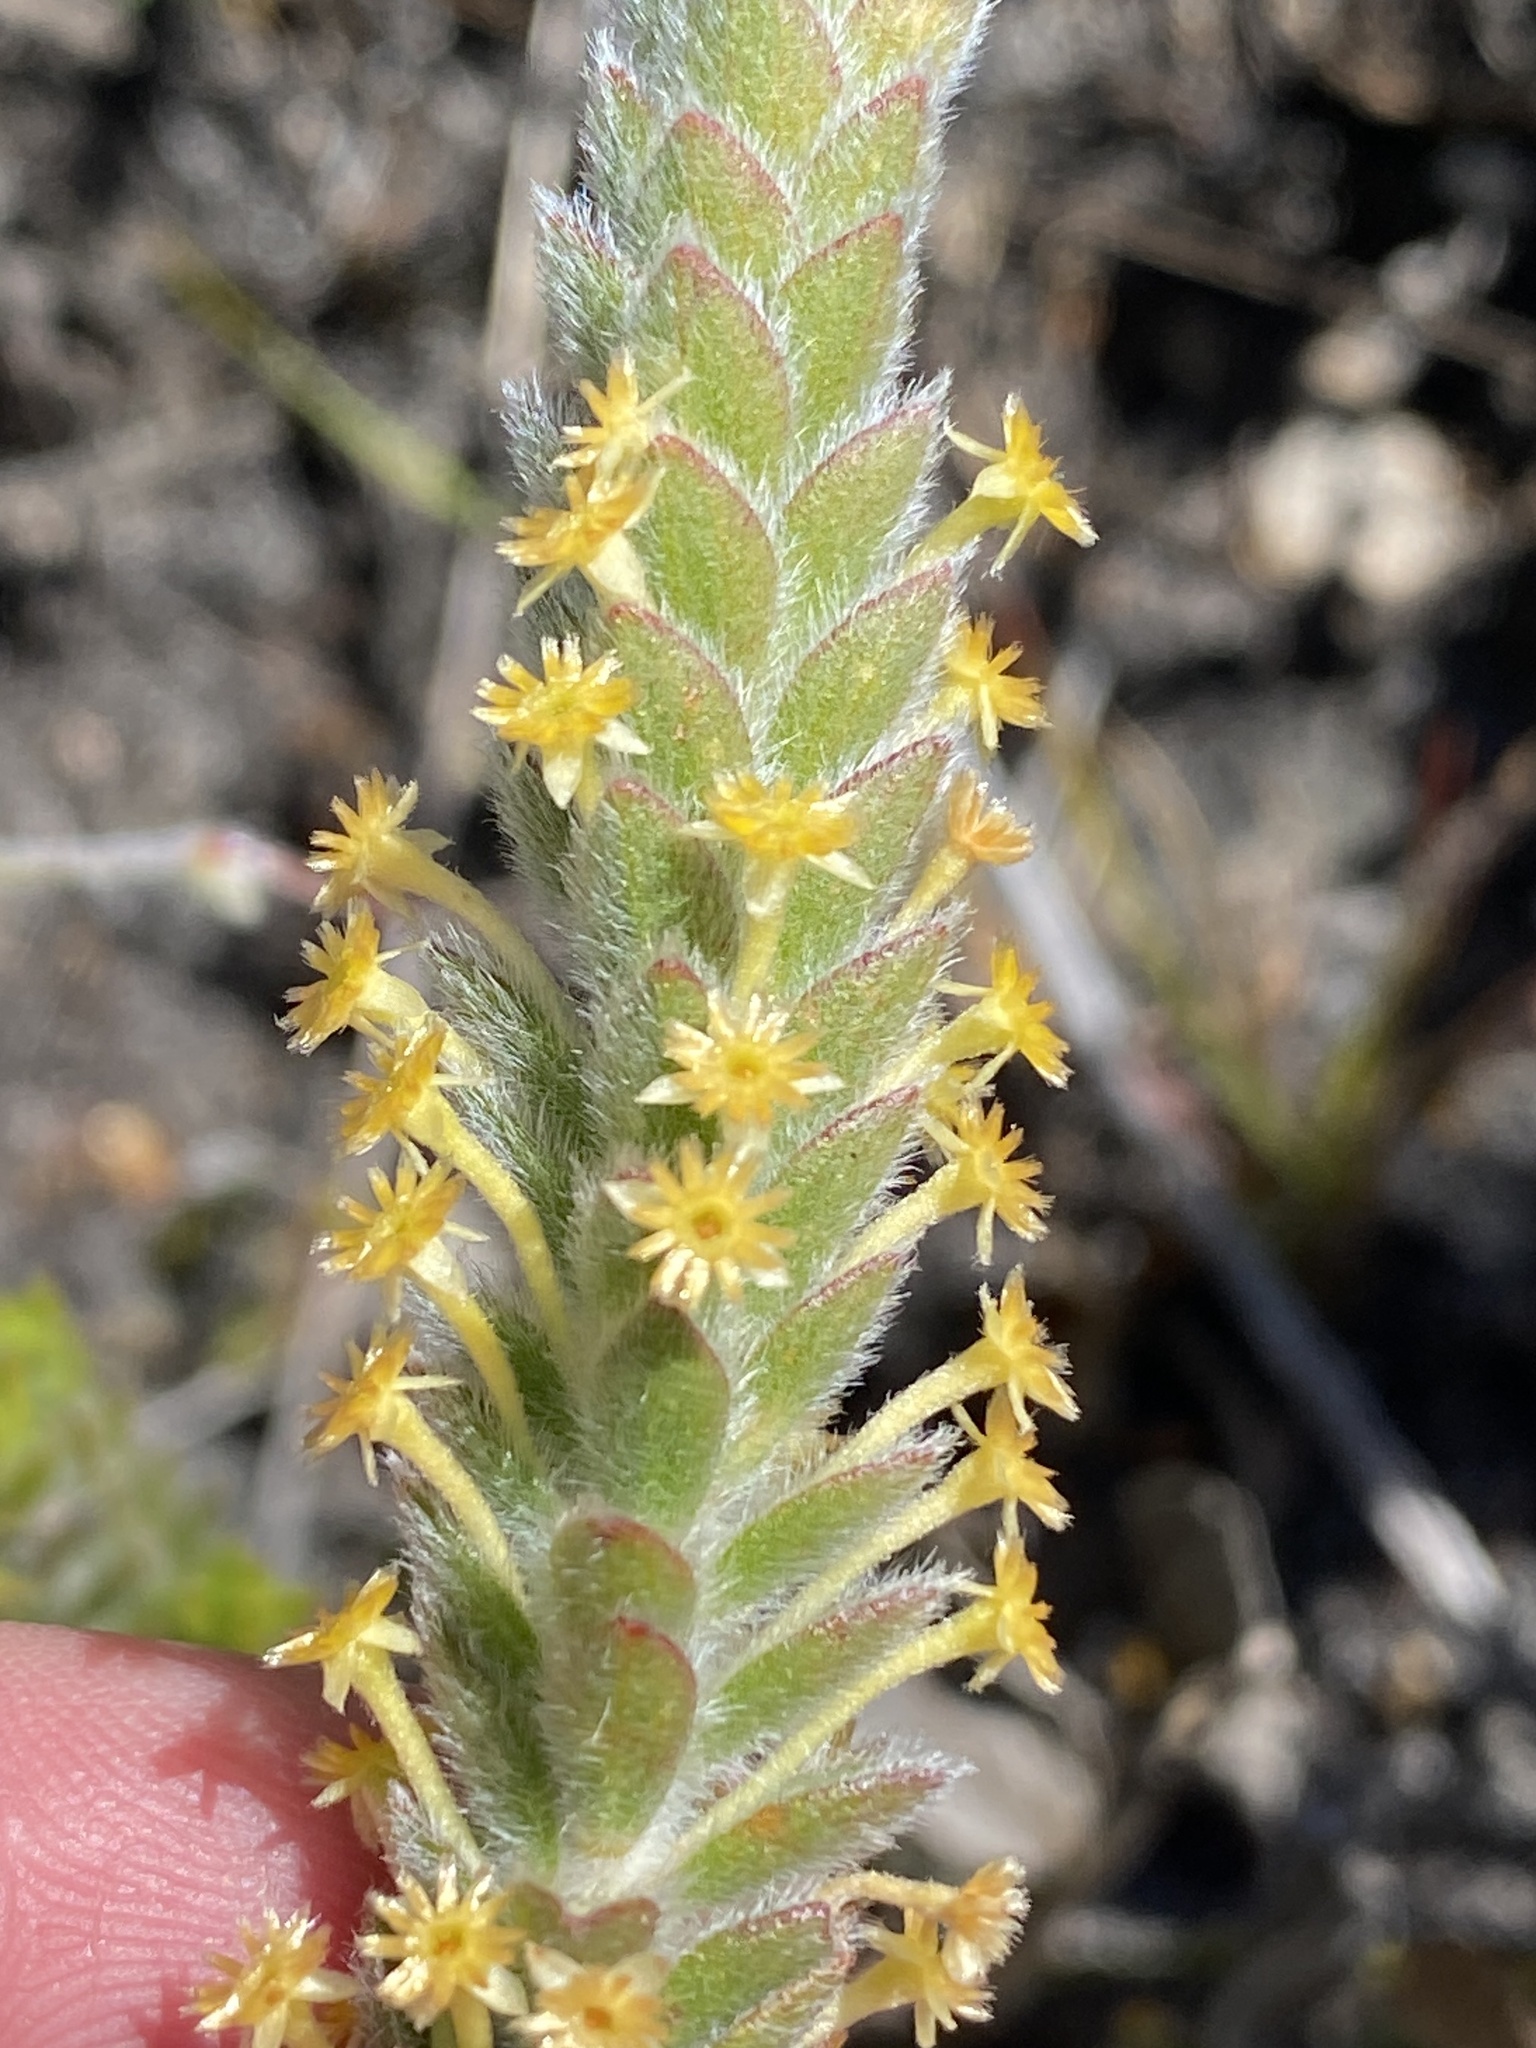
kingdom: Plantae
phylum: Tracheophyta
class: Magnoliopsida
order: Malvales
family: Thymelaeaceae
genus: Struthiola
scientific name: Struthiola tomentosa
